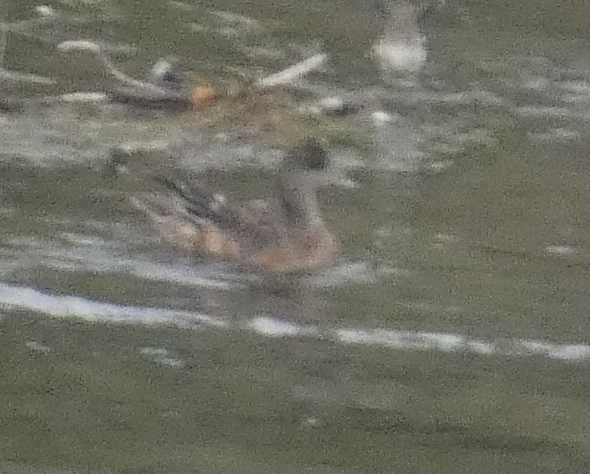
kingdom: Animalia
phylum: Chordata
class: Aves
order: Anseriformes
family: Anatidae
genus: Mareca
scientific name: Mareca americana
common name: American wigeon
